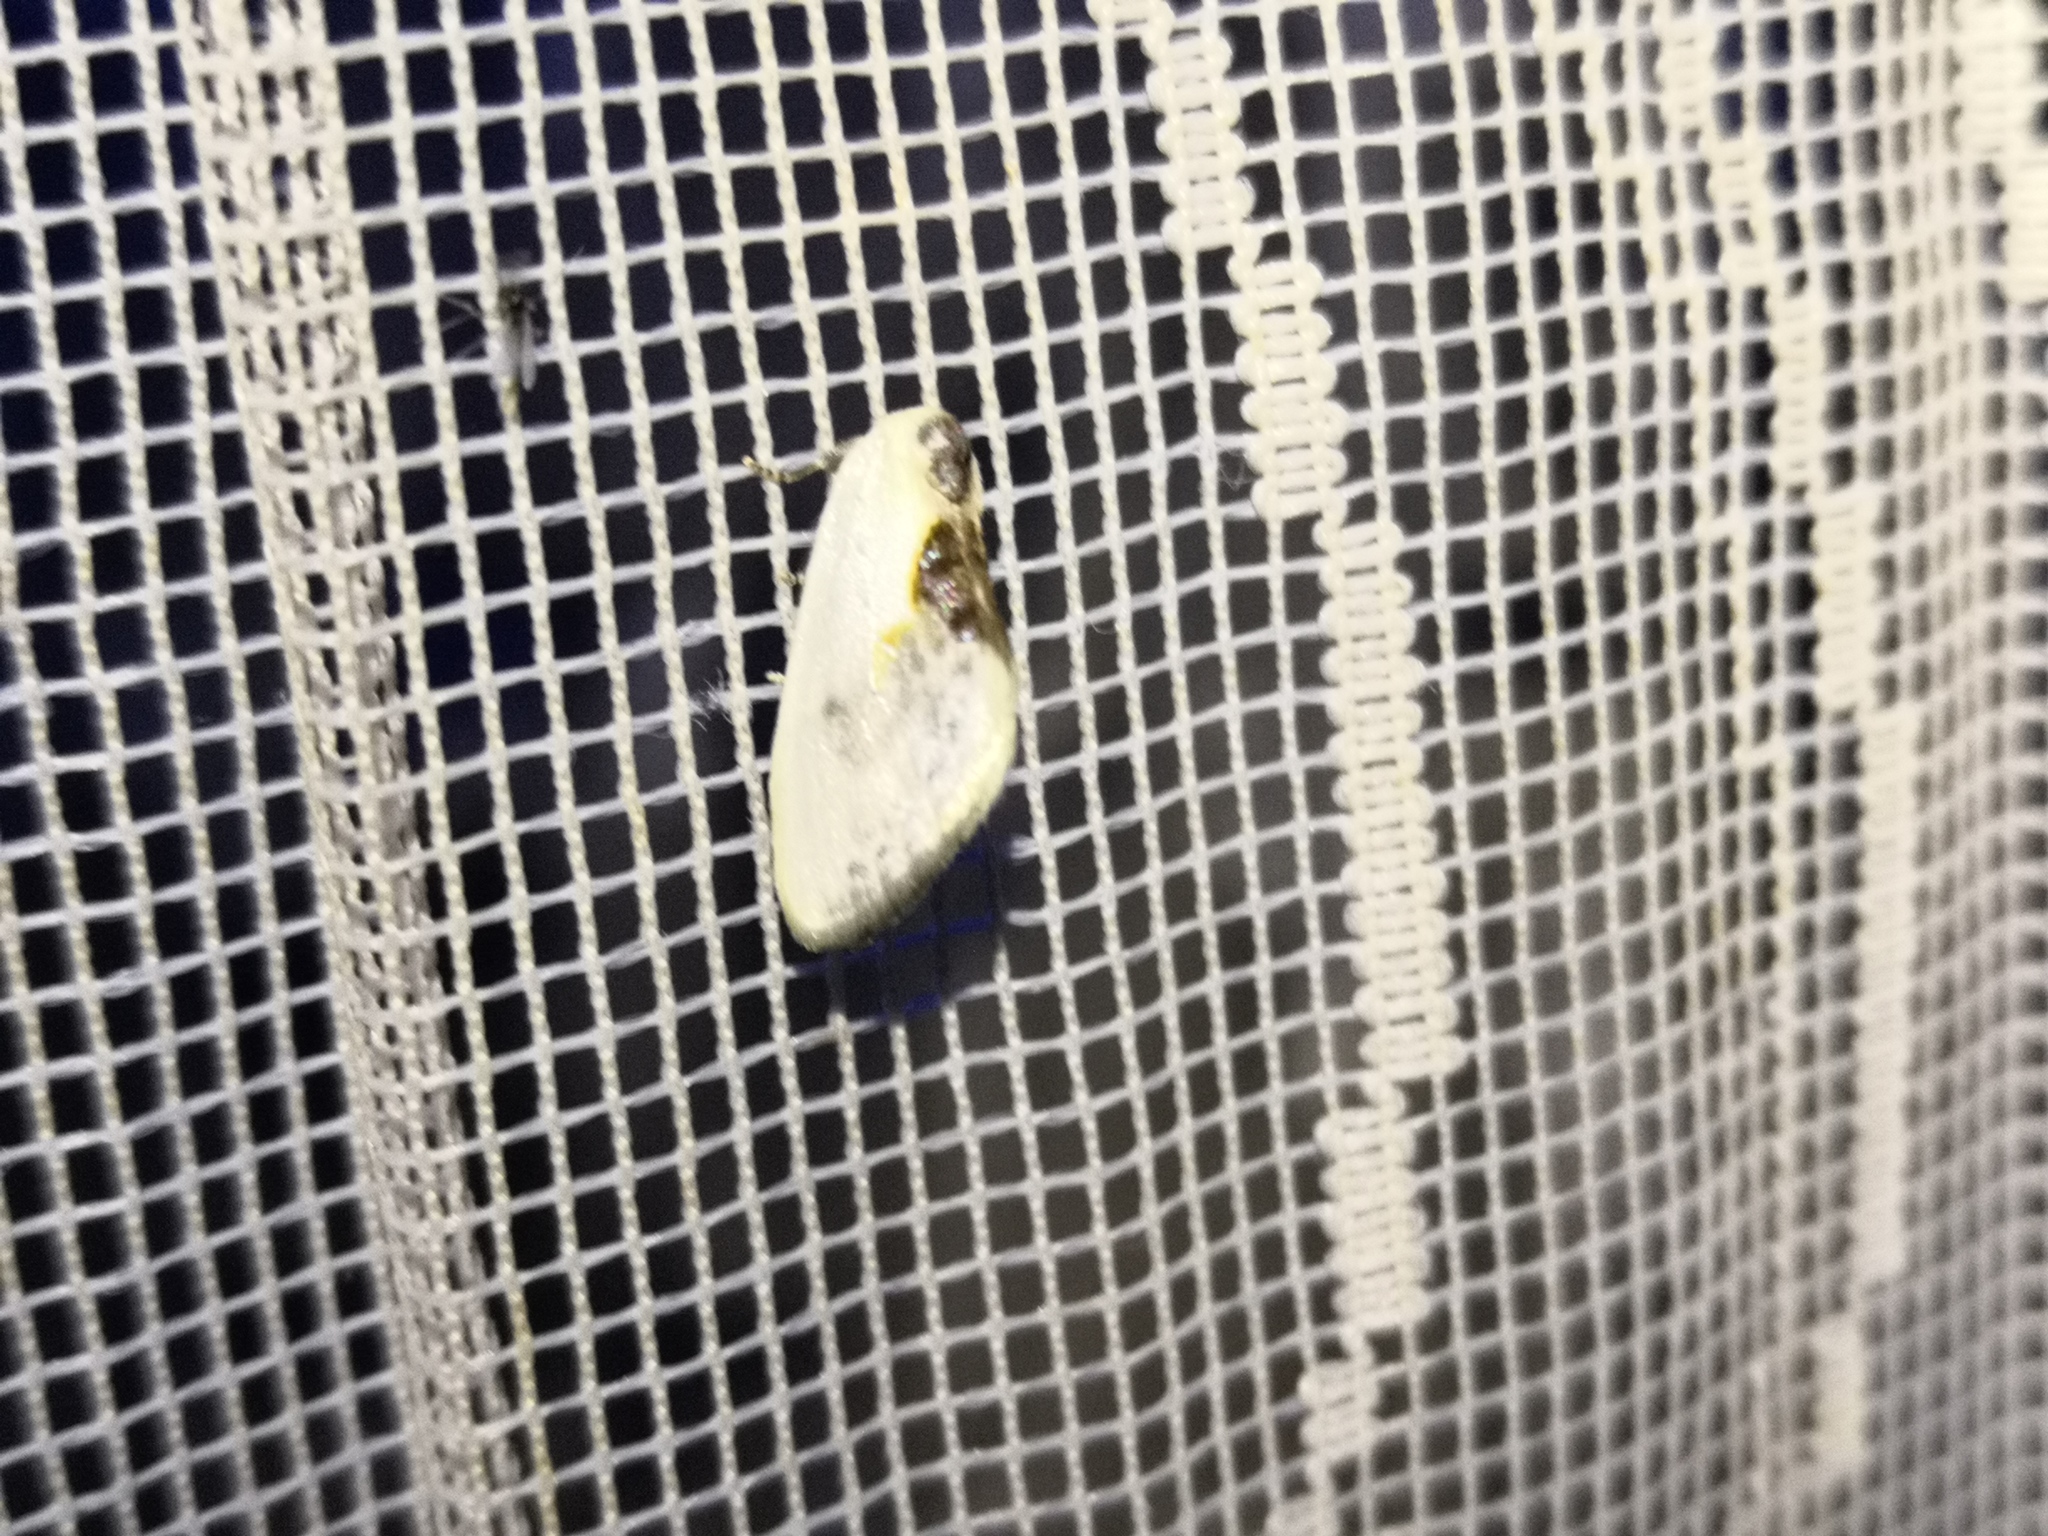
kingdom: Animalia
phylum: Arthropoda
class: Insecta
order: Lepidoptera
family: Drepanidae
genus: Cilix
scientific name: Cilix glaucata
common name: Chinese character
